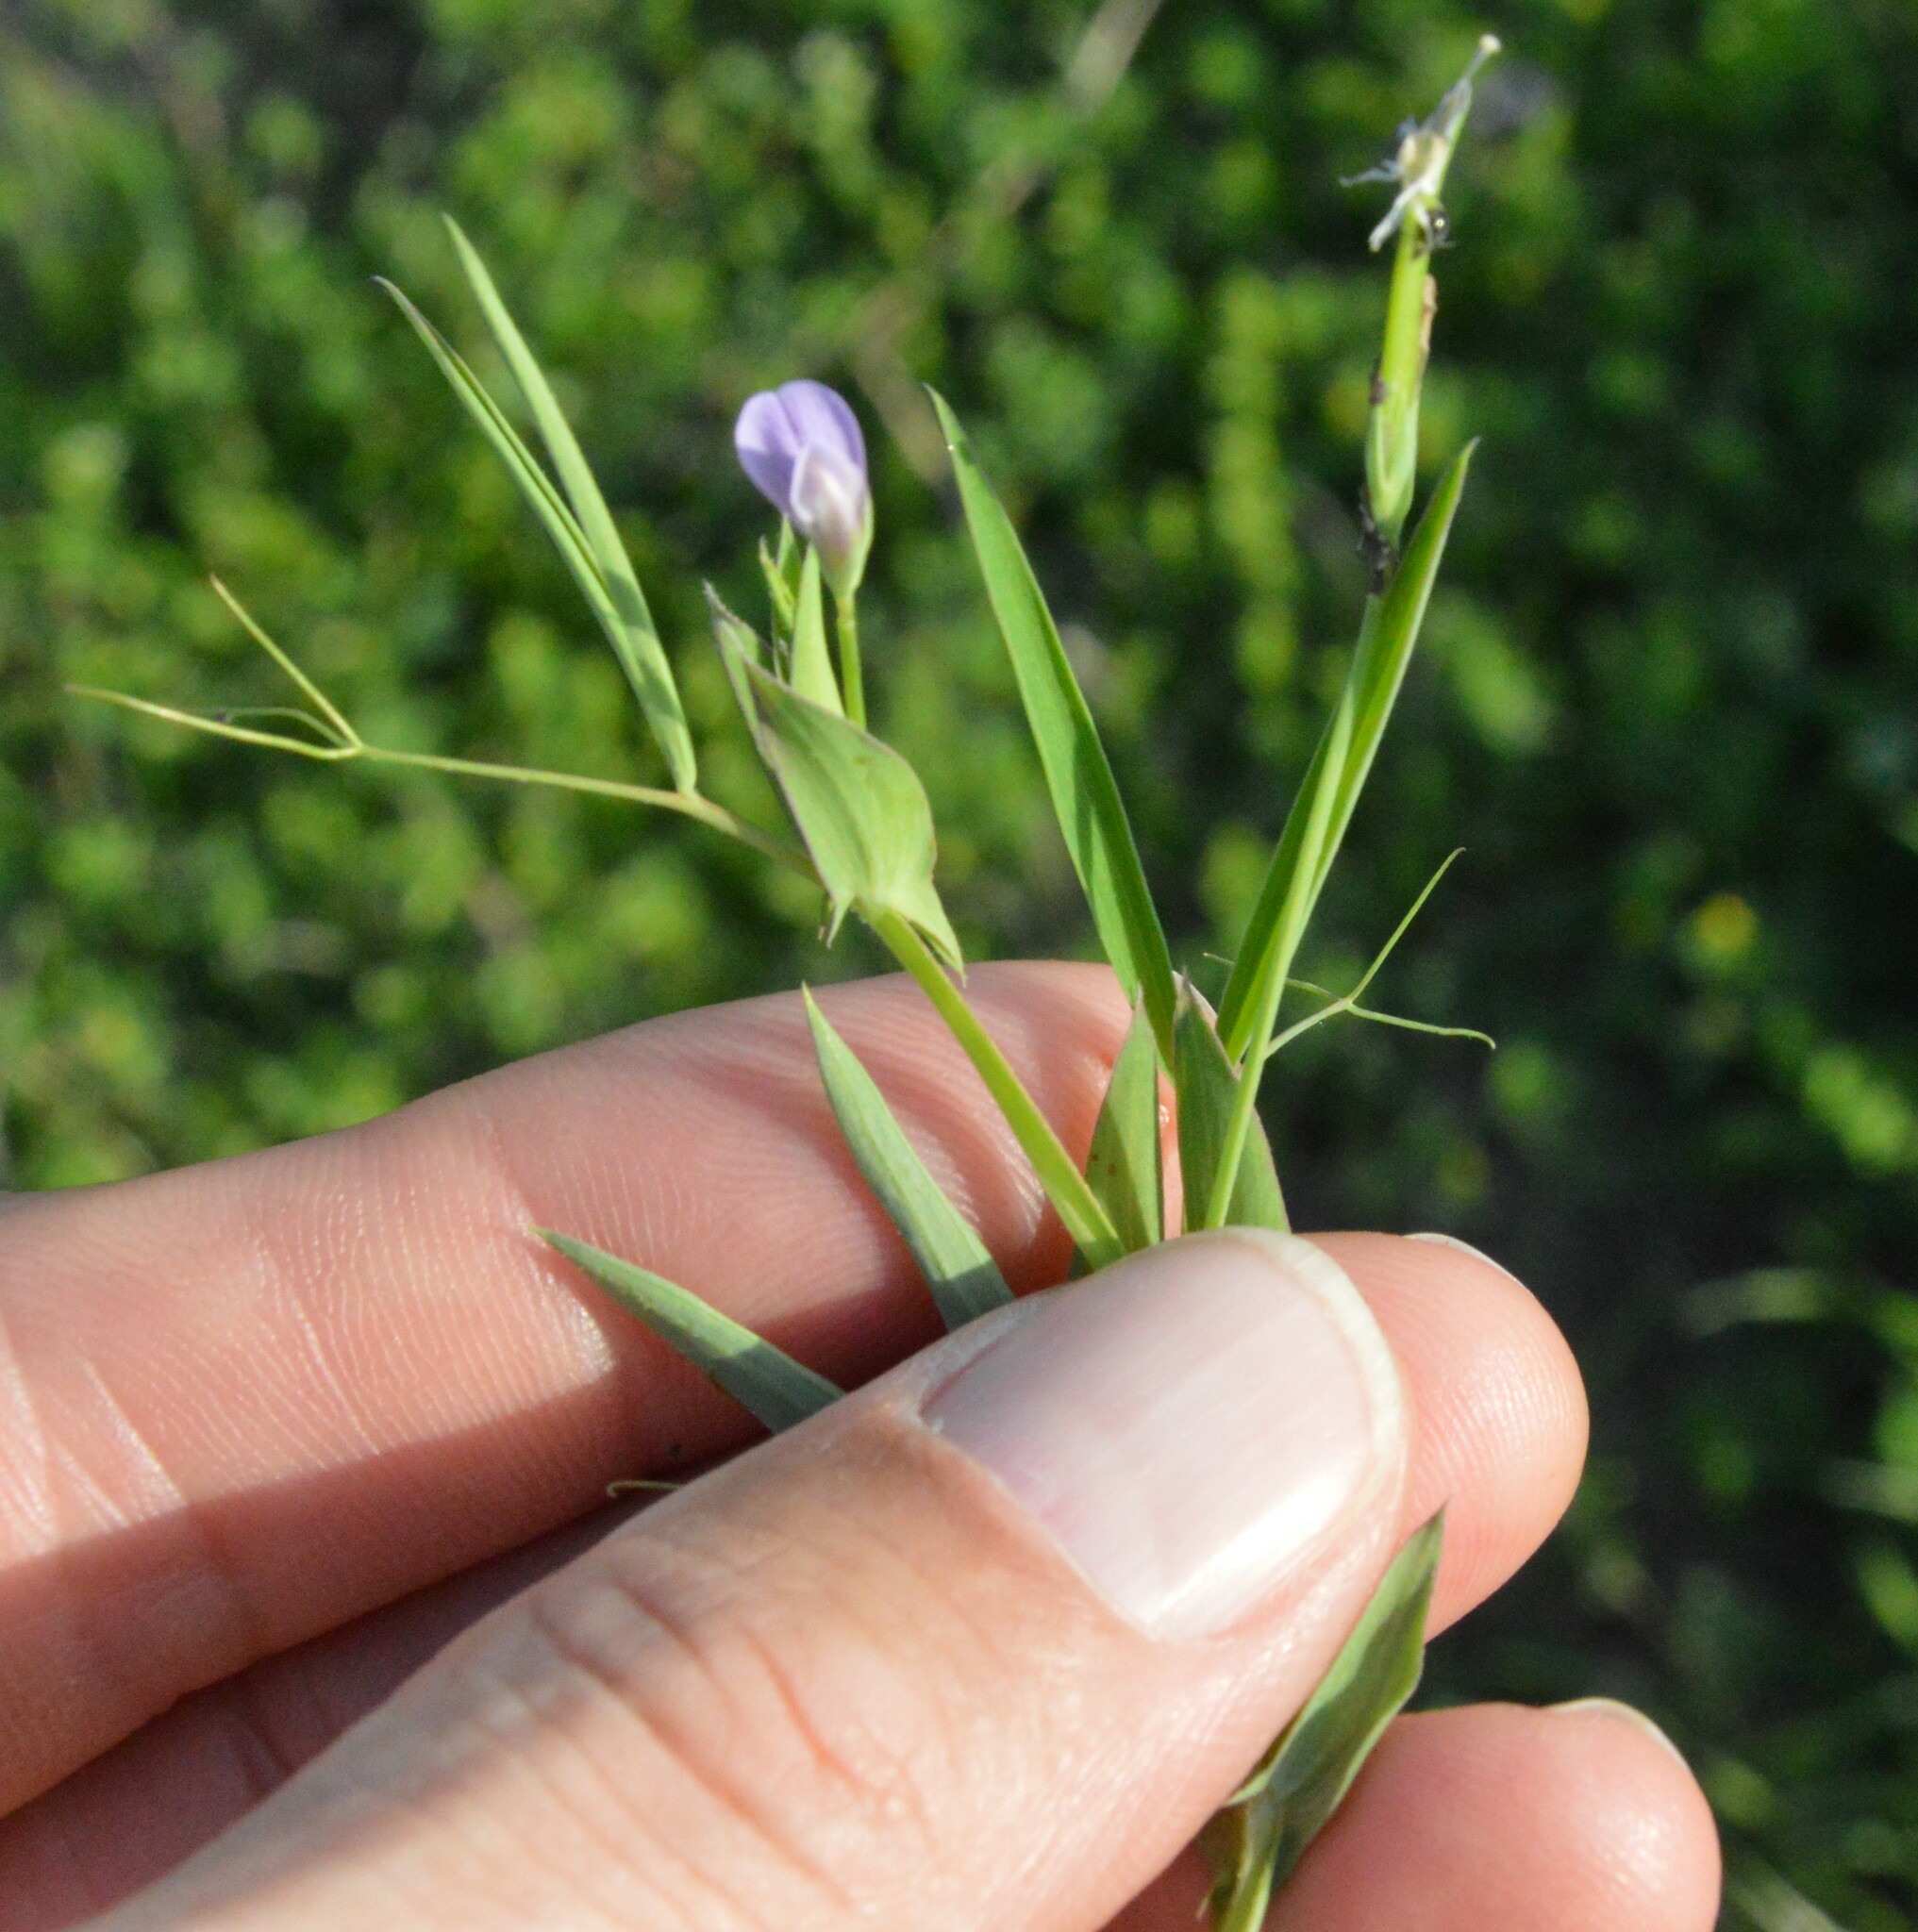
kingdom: Plantae
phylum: Tracheophyta
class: Magnoliopsida
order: Fabales
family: Fabaceae
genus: Lathyrus
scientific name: Lathyrus pusillus
